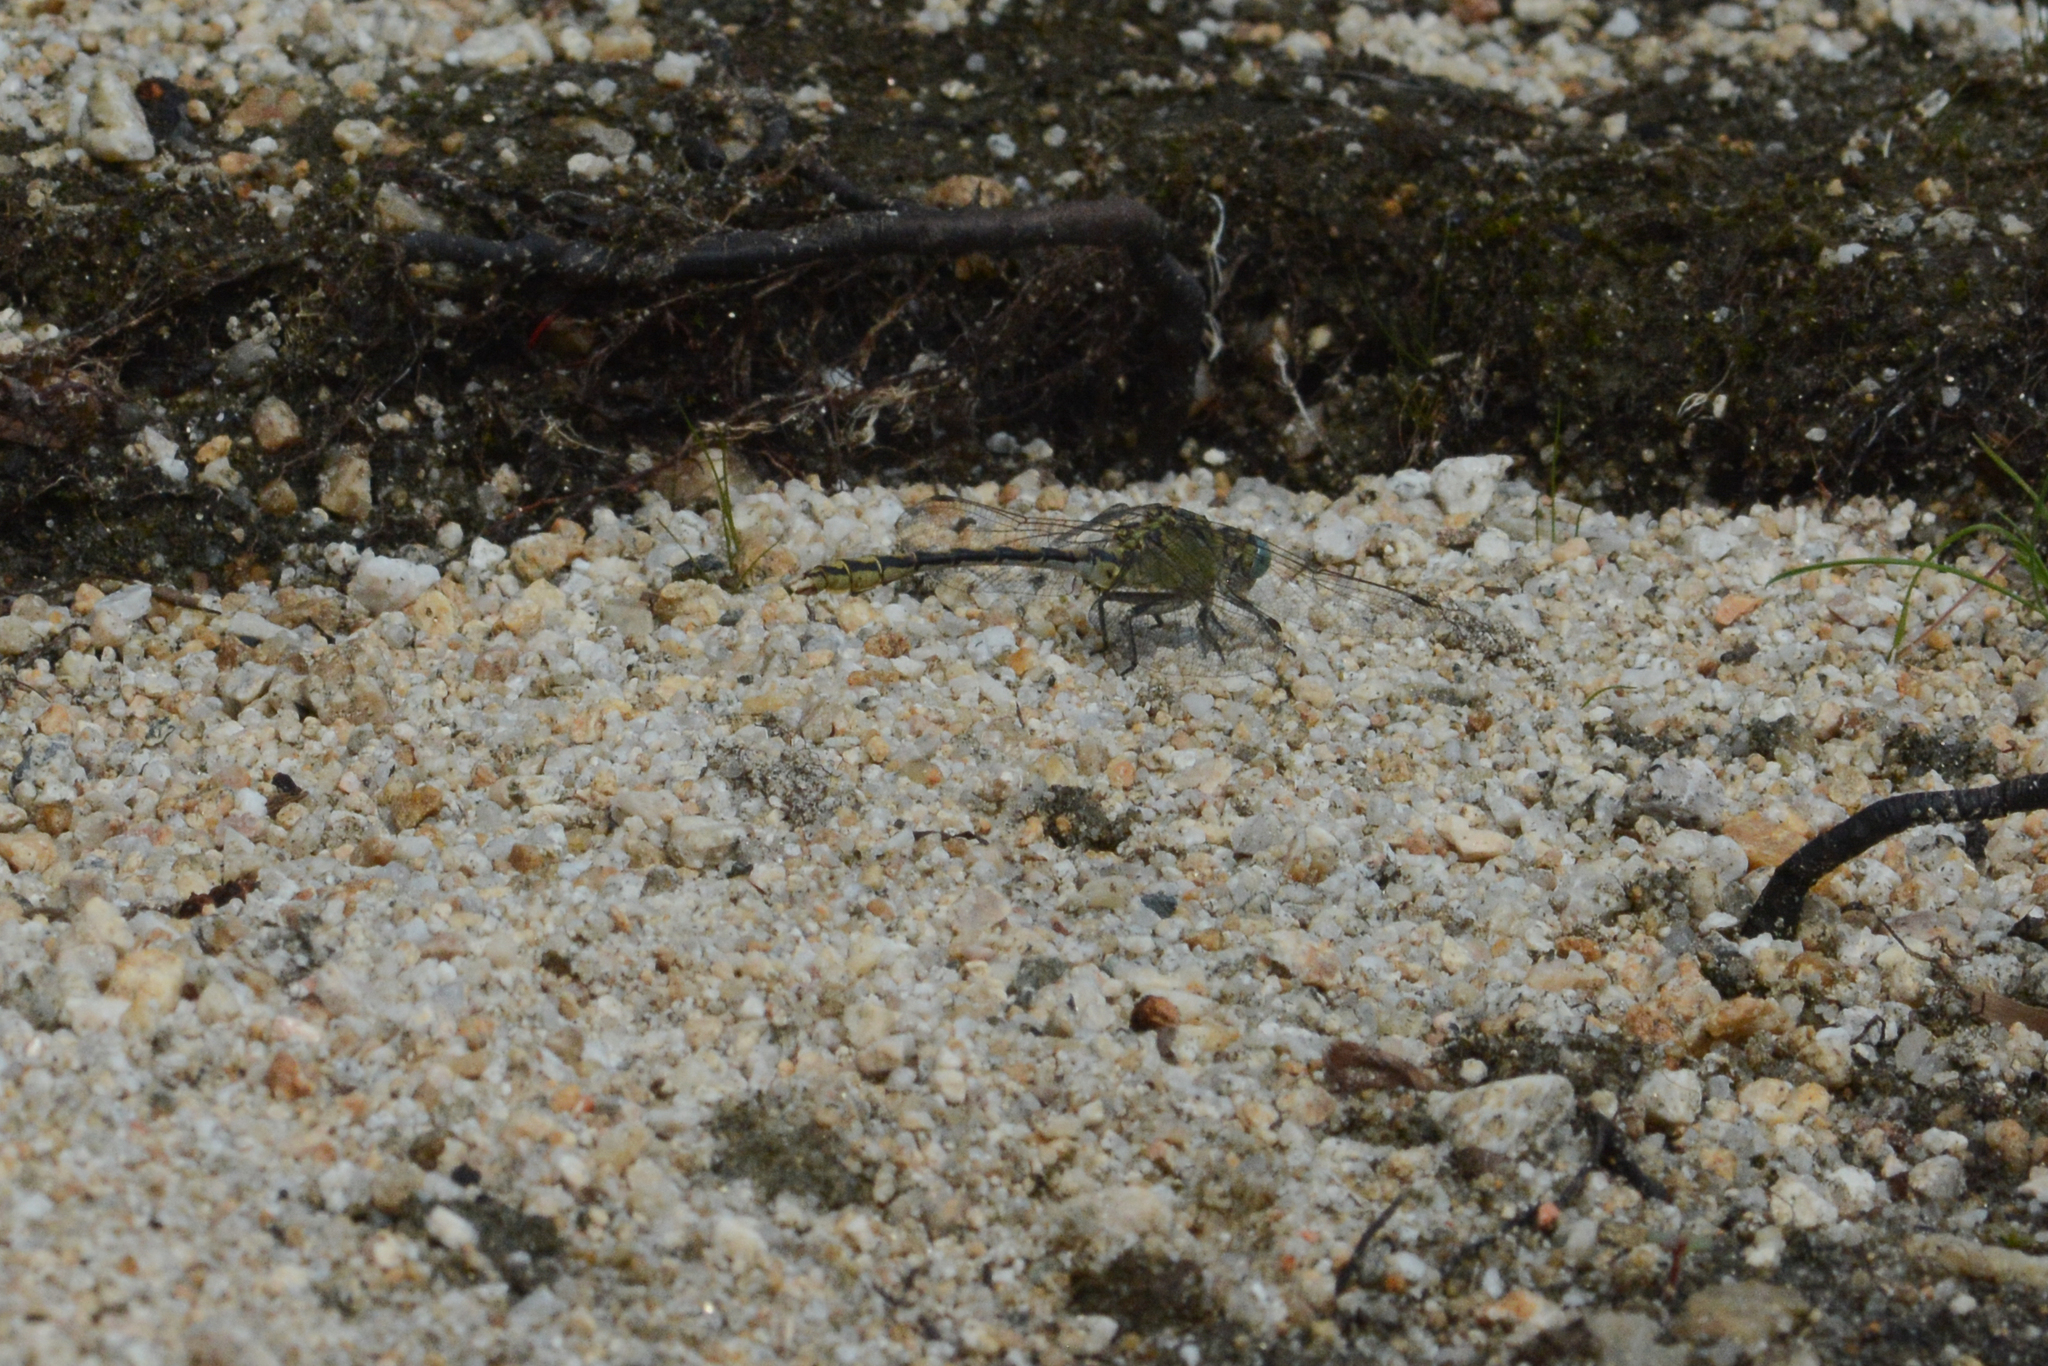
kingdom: Animalia
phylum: Arthropoda
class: Insecta
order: Odonata
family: Gomphidae
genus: Ophiogomphus
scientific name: Ophiogomphus severus
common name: Pale snaketail
